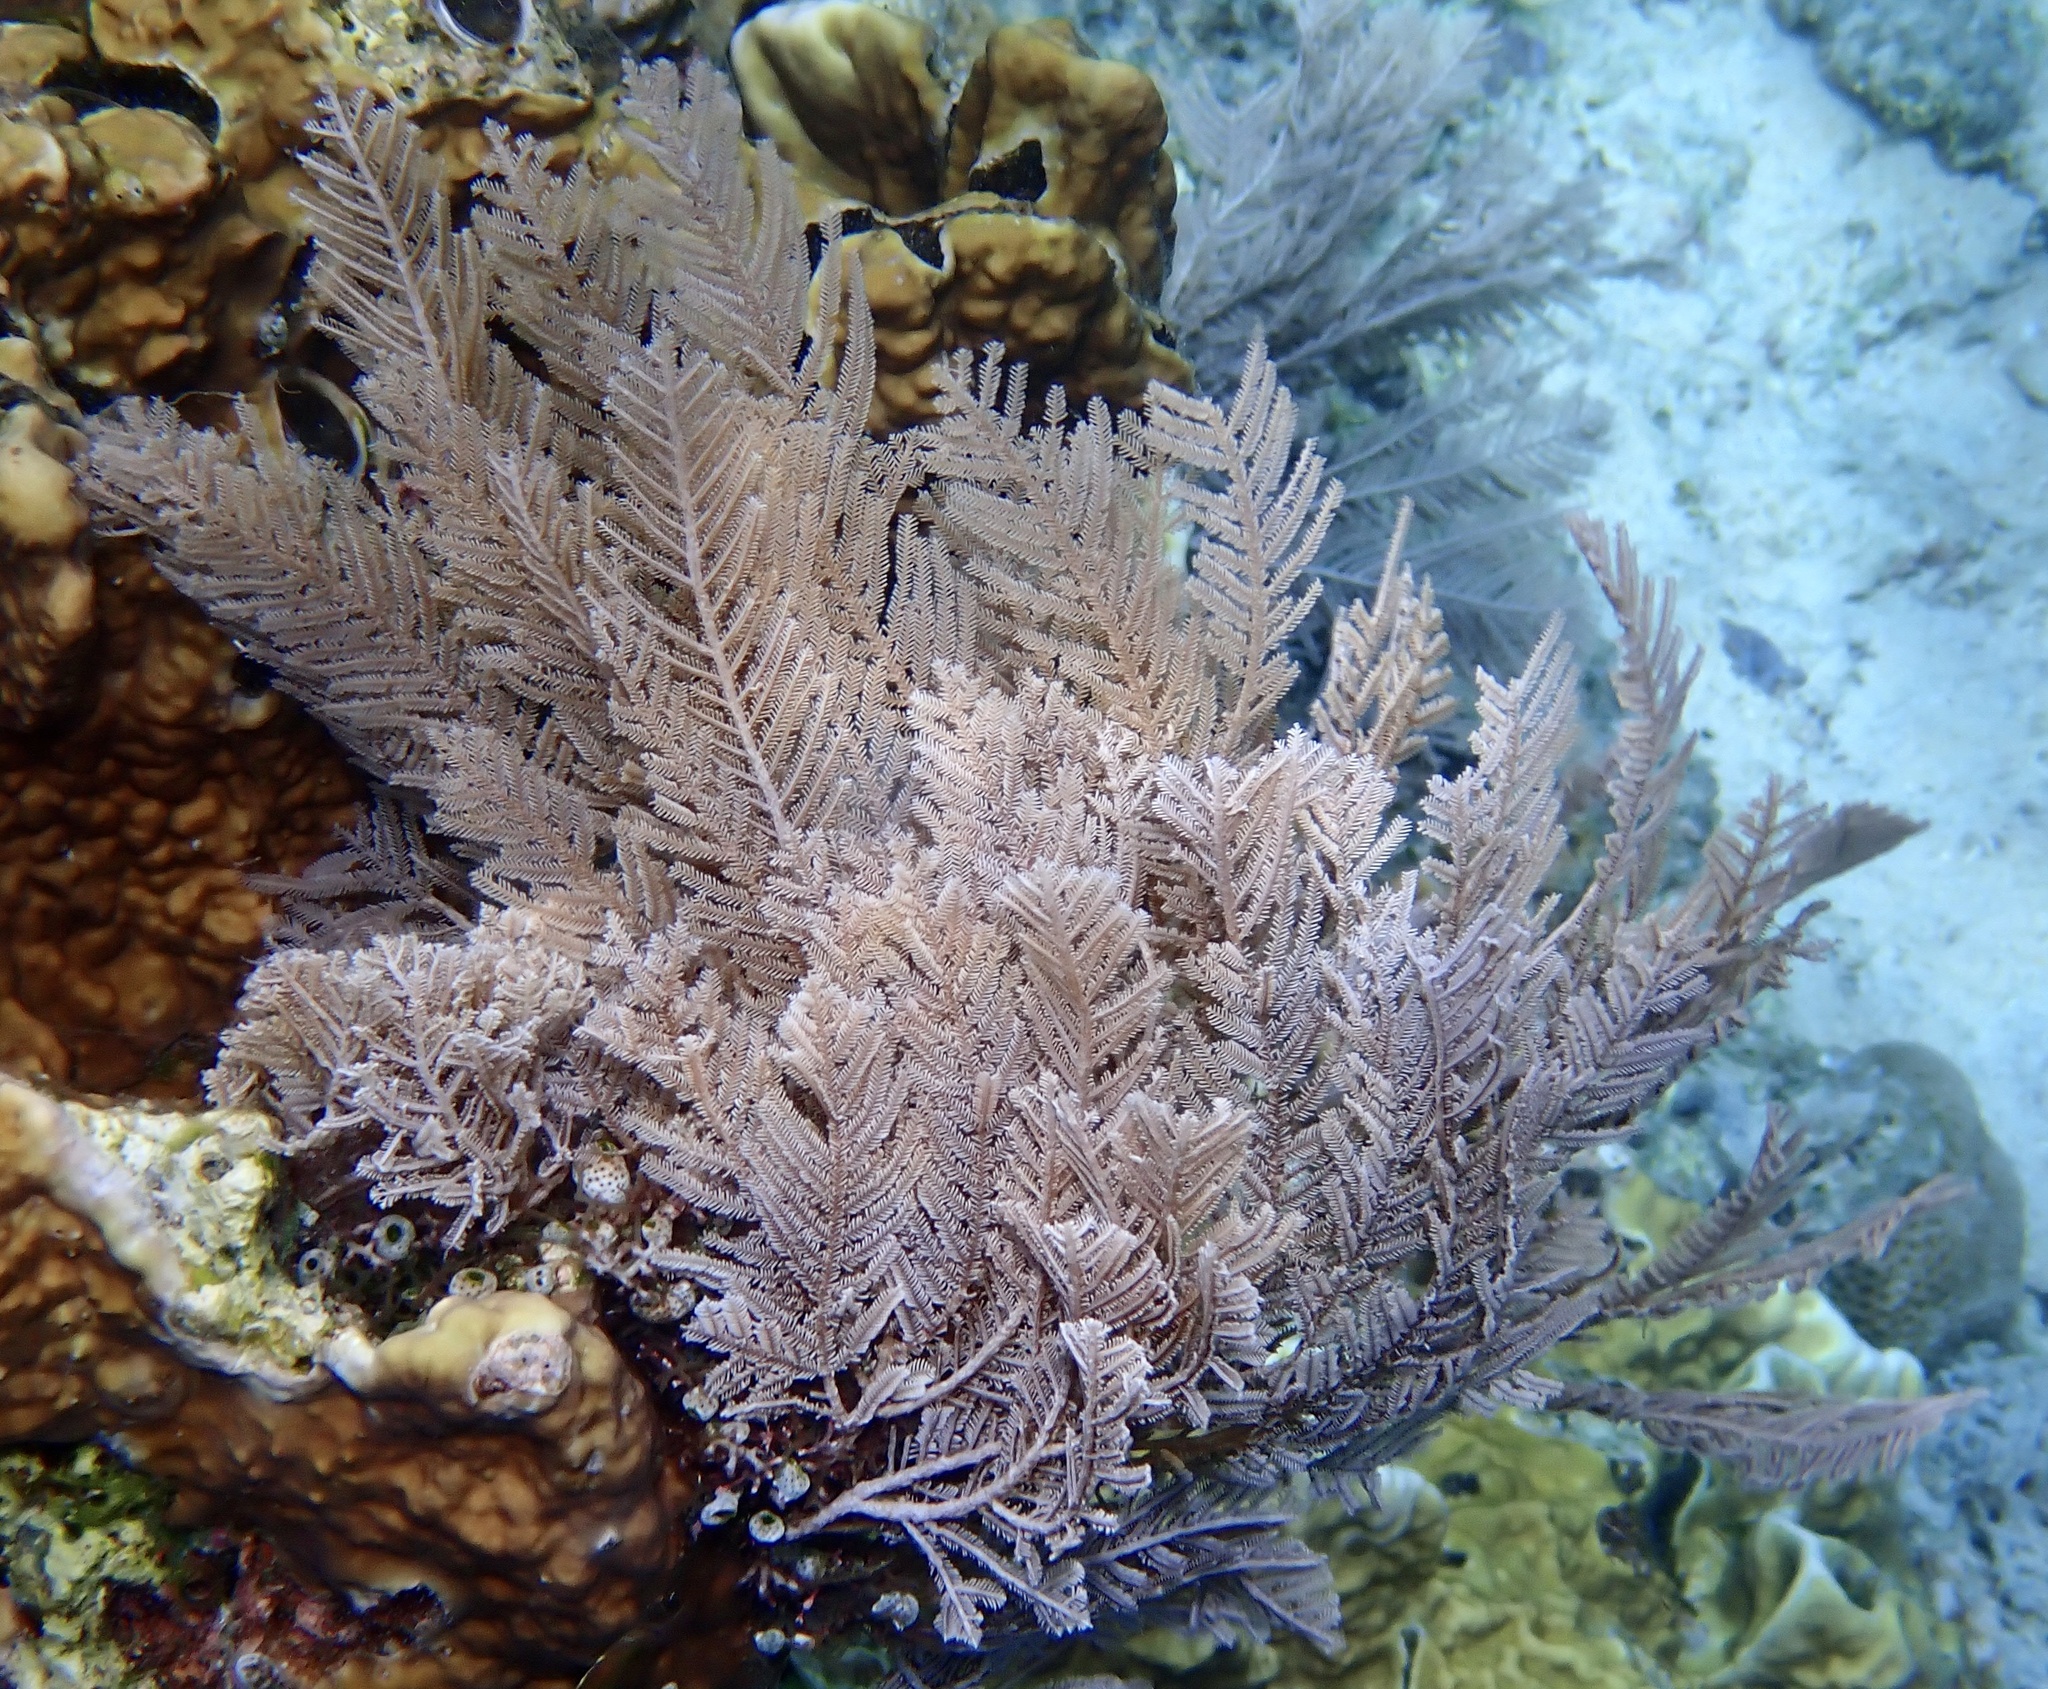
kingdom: Animalia
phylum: Cnidaria
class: Hydrozoa
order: Leptothecata
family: Aglaopheniidae
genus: Pachyrhynchia
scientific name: Pachyrhynchia cuppressina
